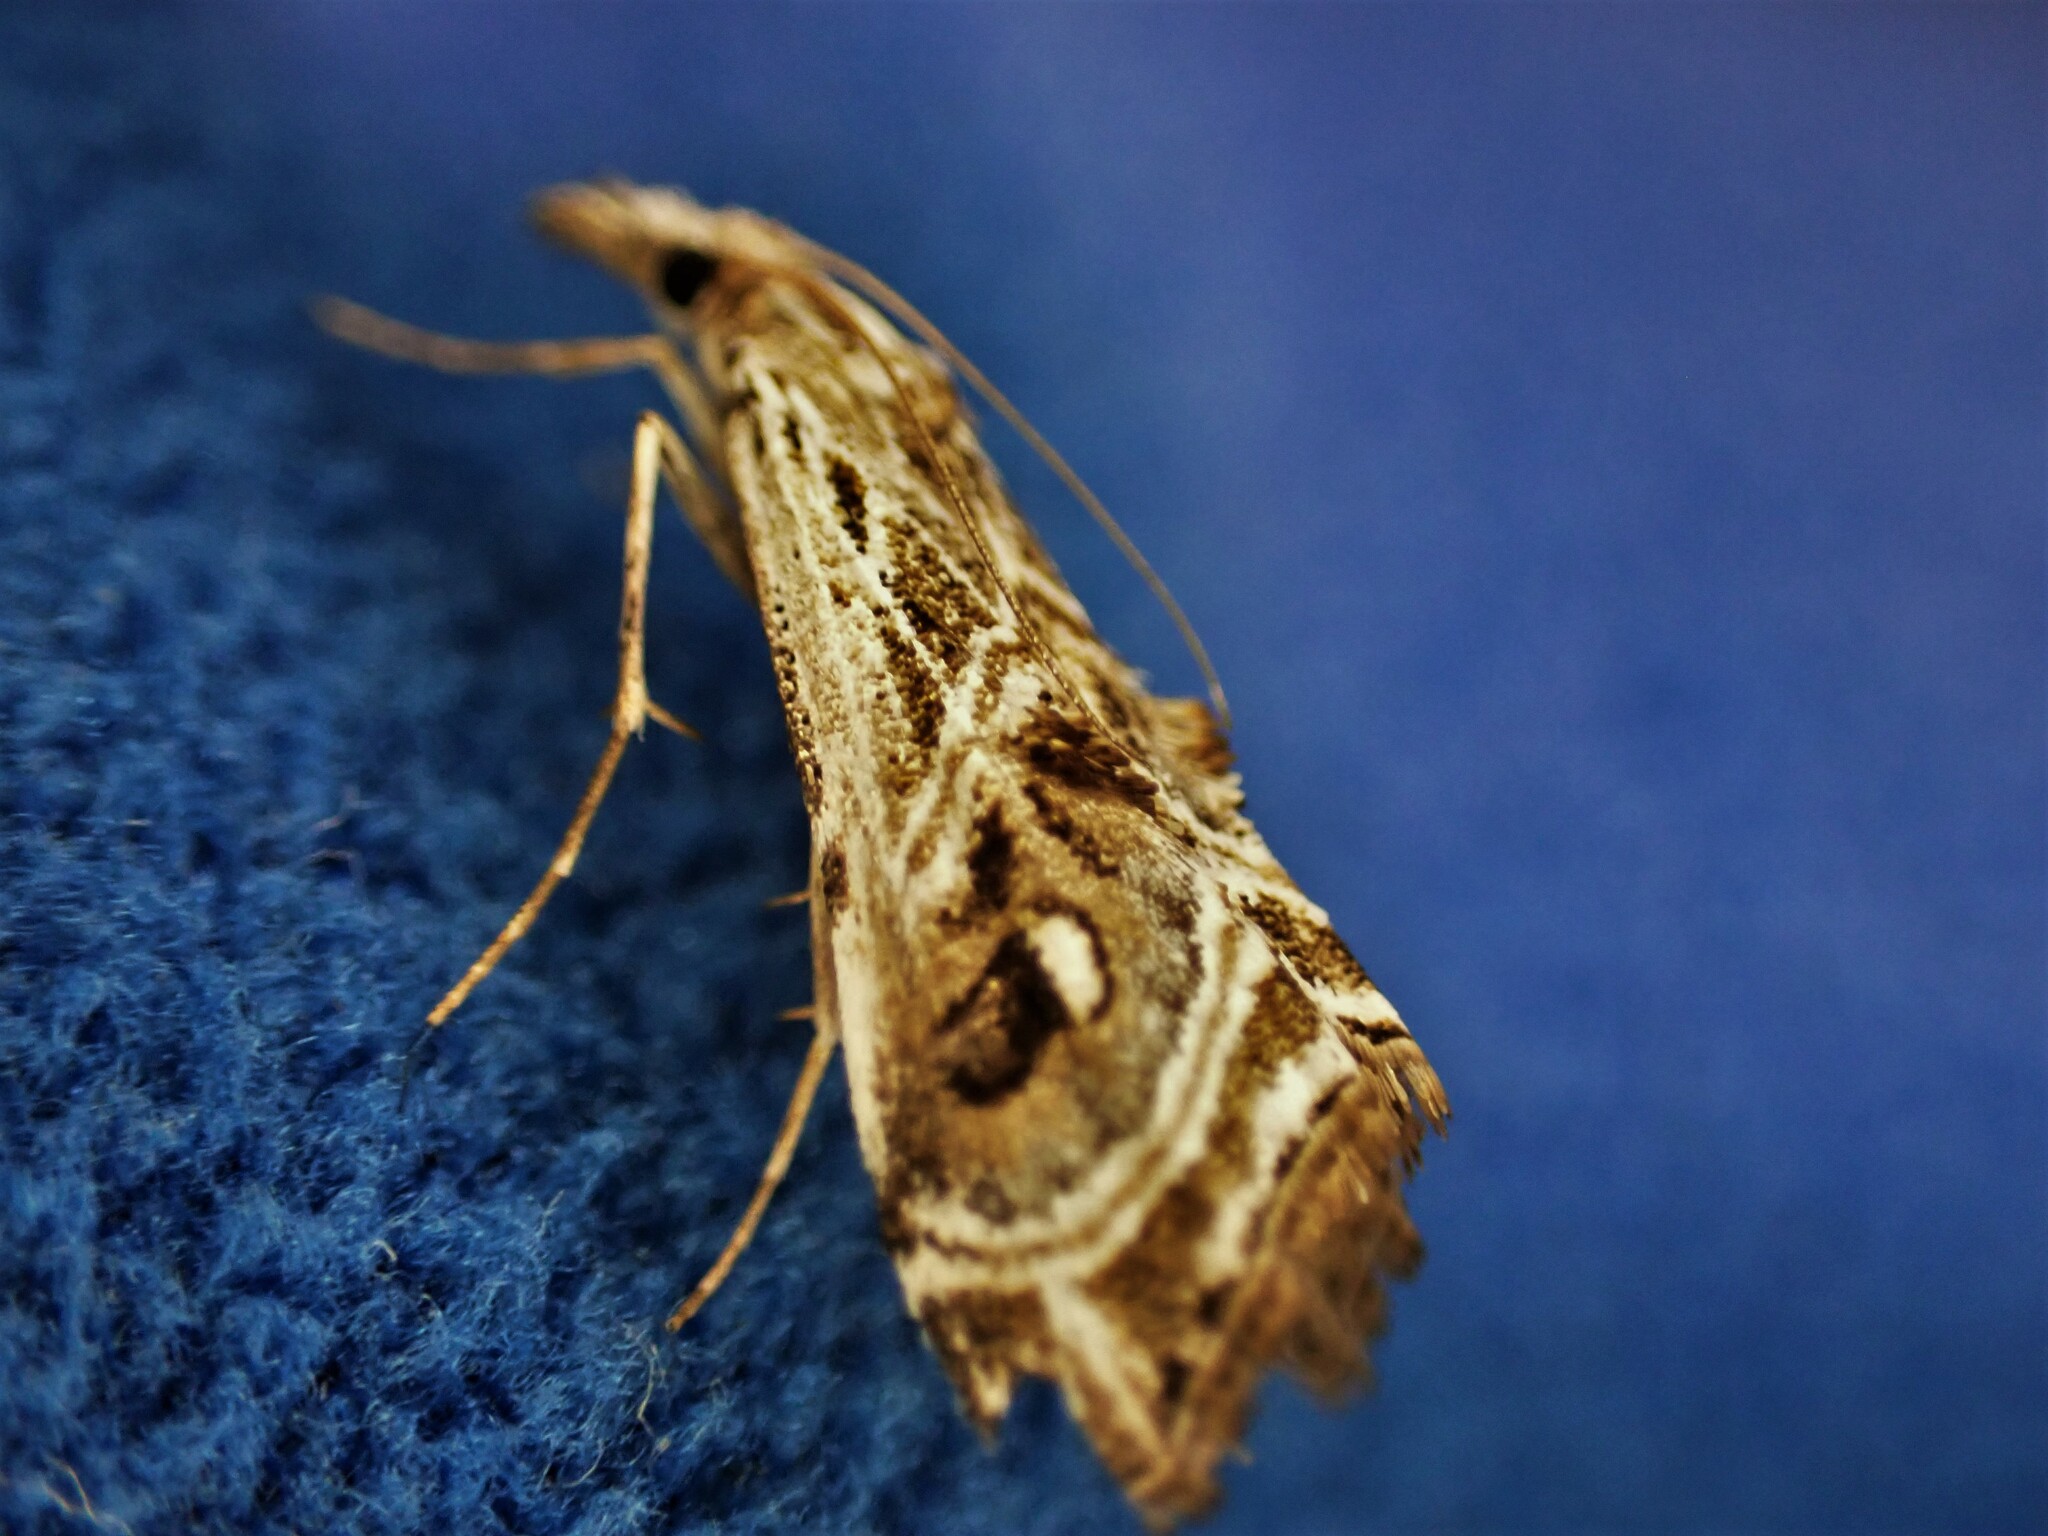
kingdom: Animalia
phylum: Arthropoda
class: Insecta
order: Lepidoptera
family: Crambidae
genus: Gadira
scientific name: Gadira acerella
